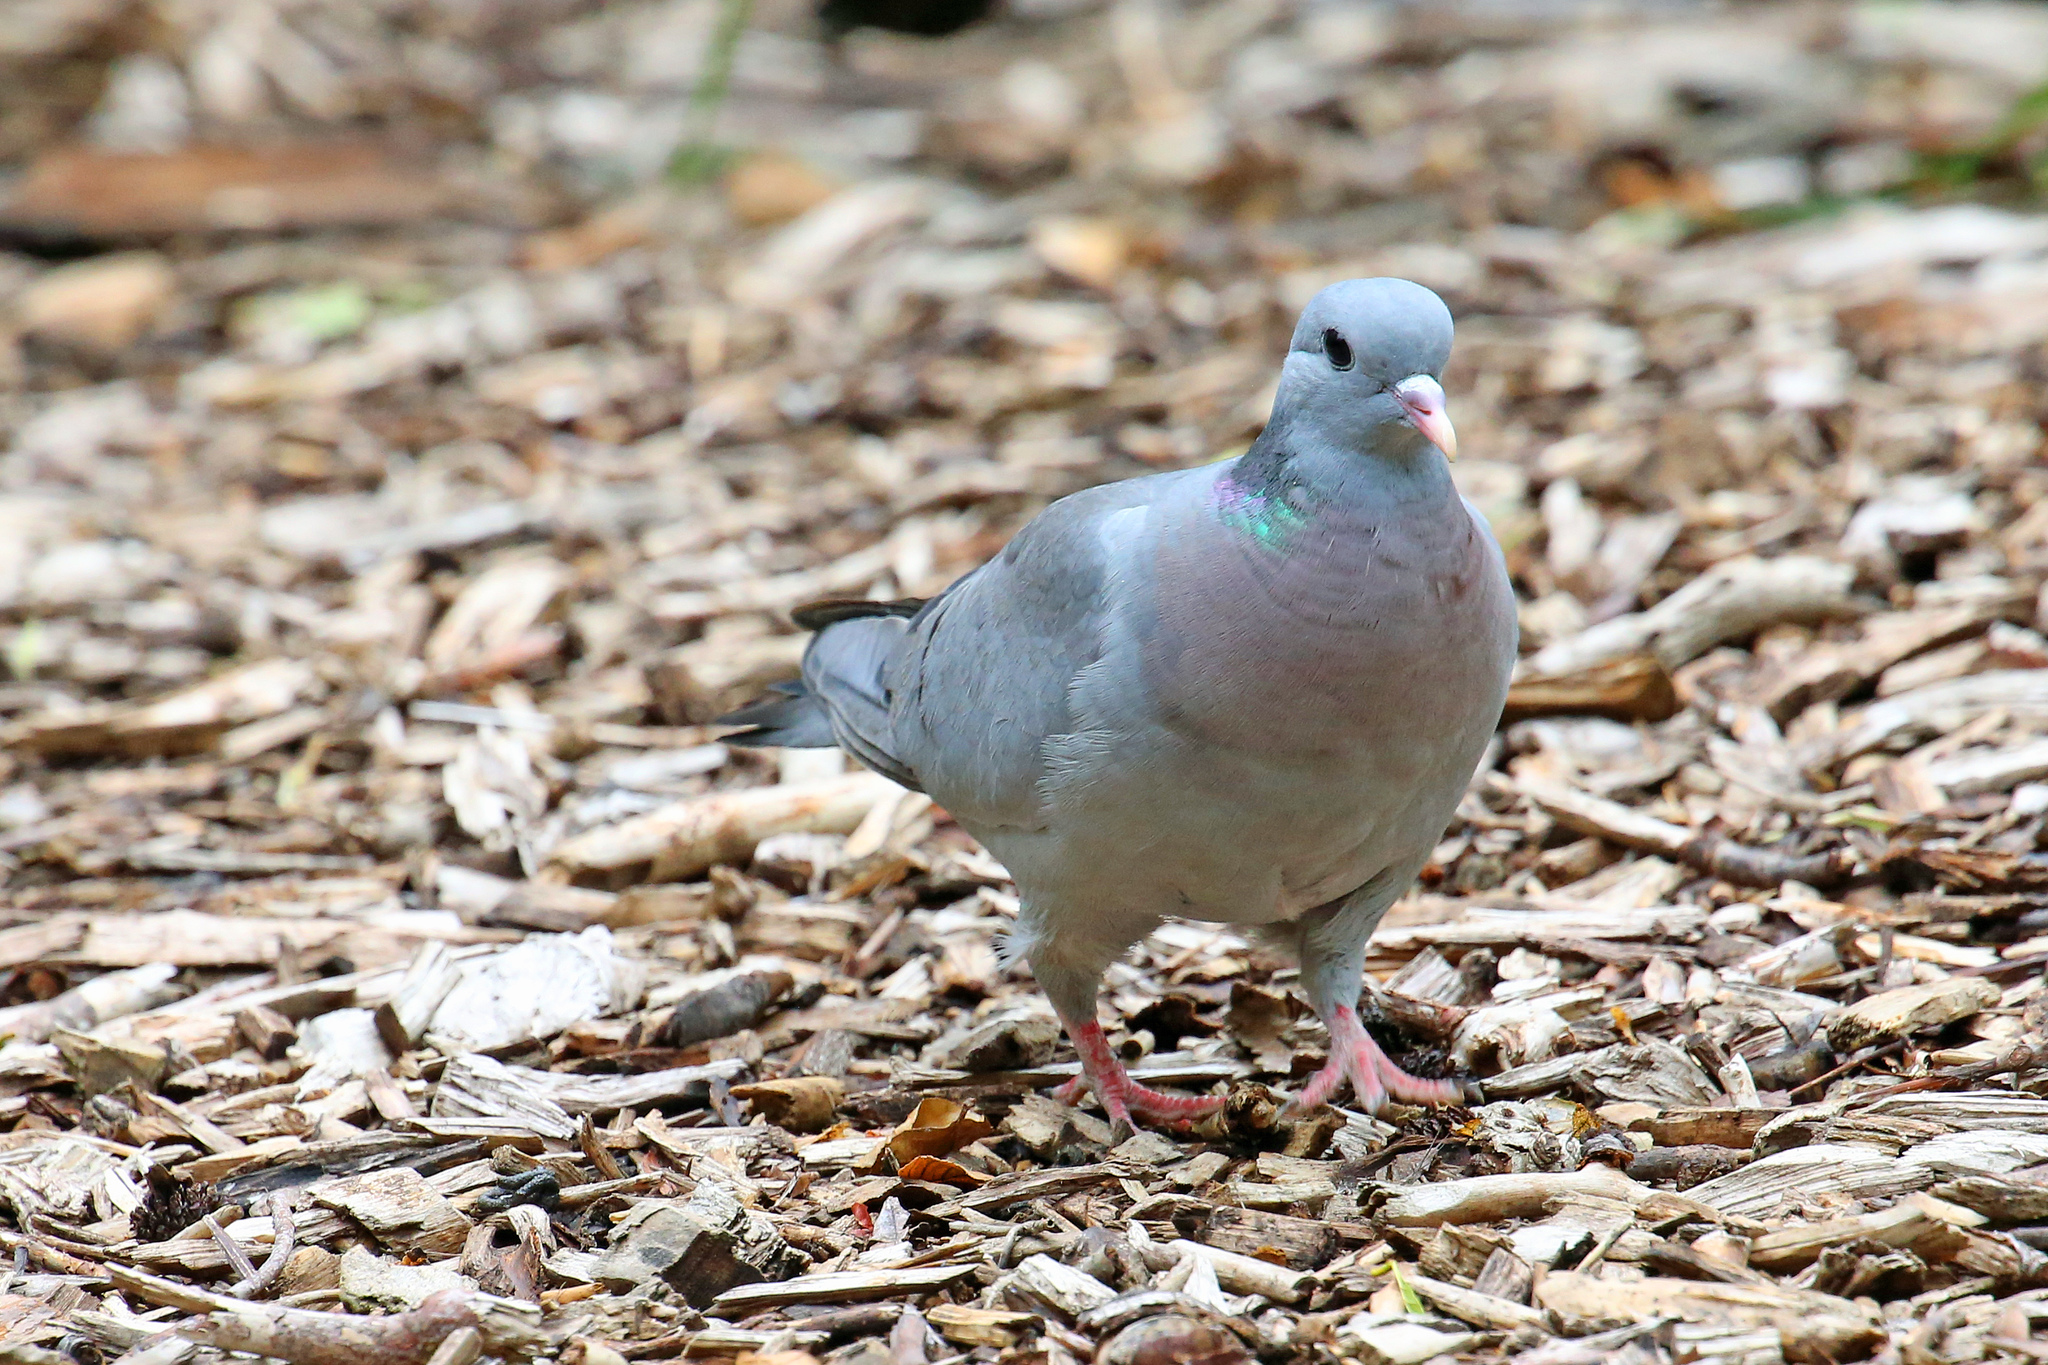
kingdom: Animalia
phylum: Chordata
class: Aves
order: Columbiformes
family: Columbidae
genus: Columba
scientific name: Columba oenas
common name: Stock dove
